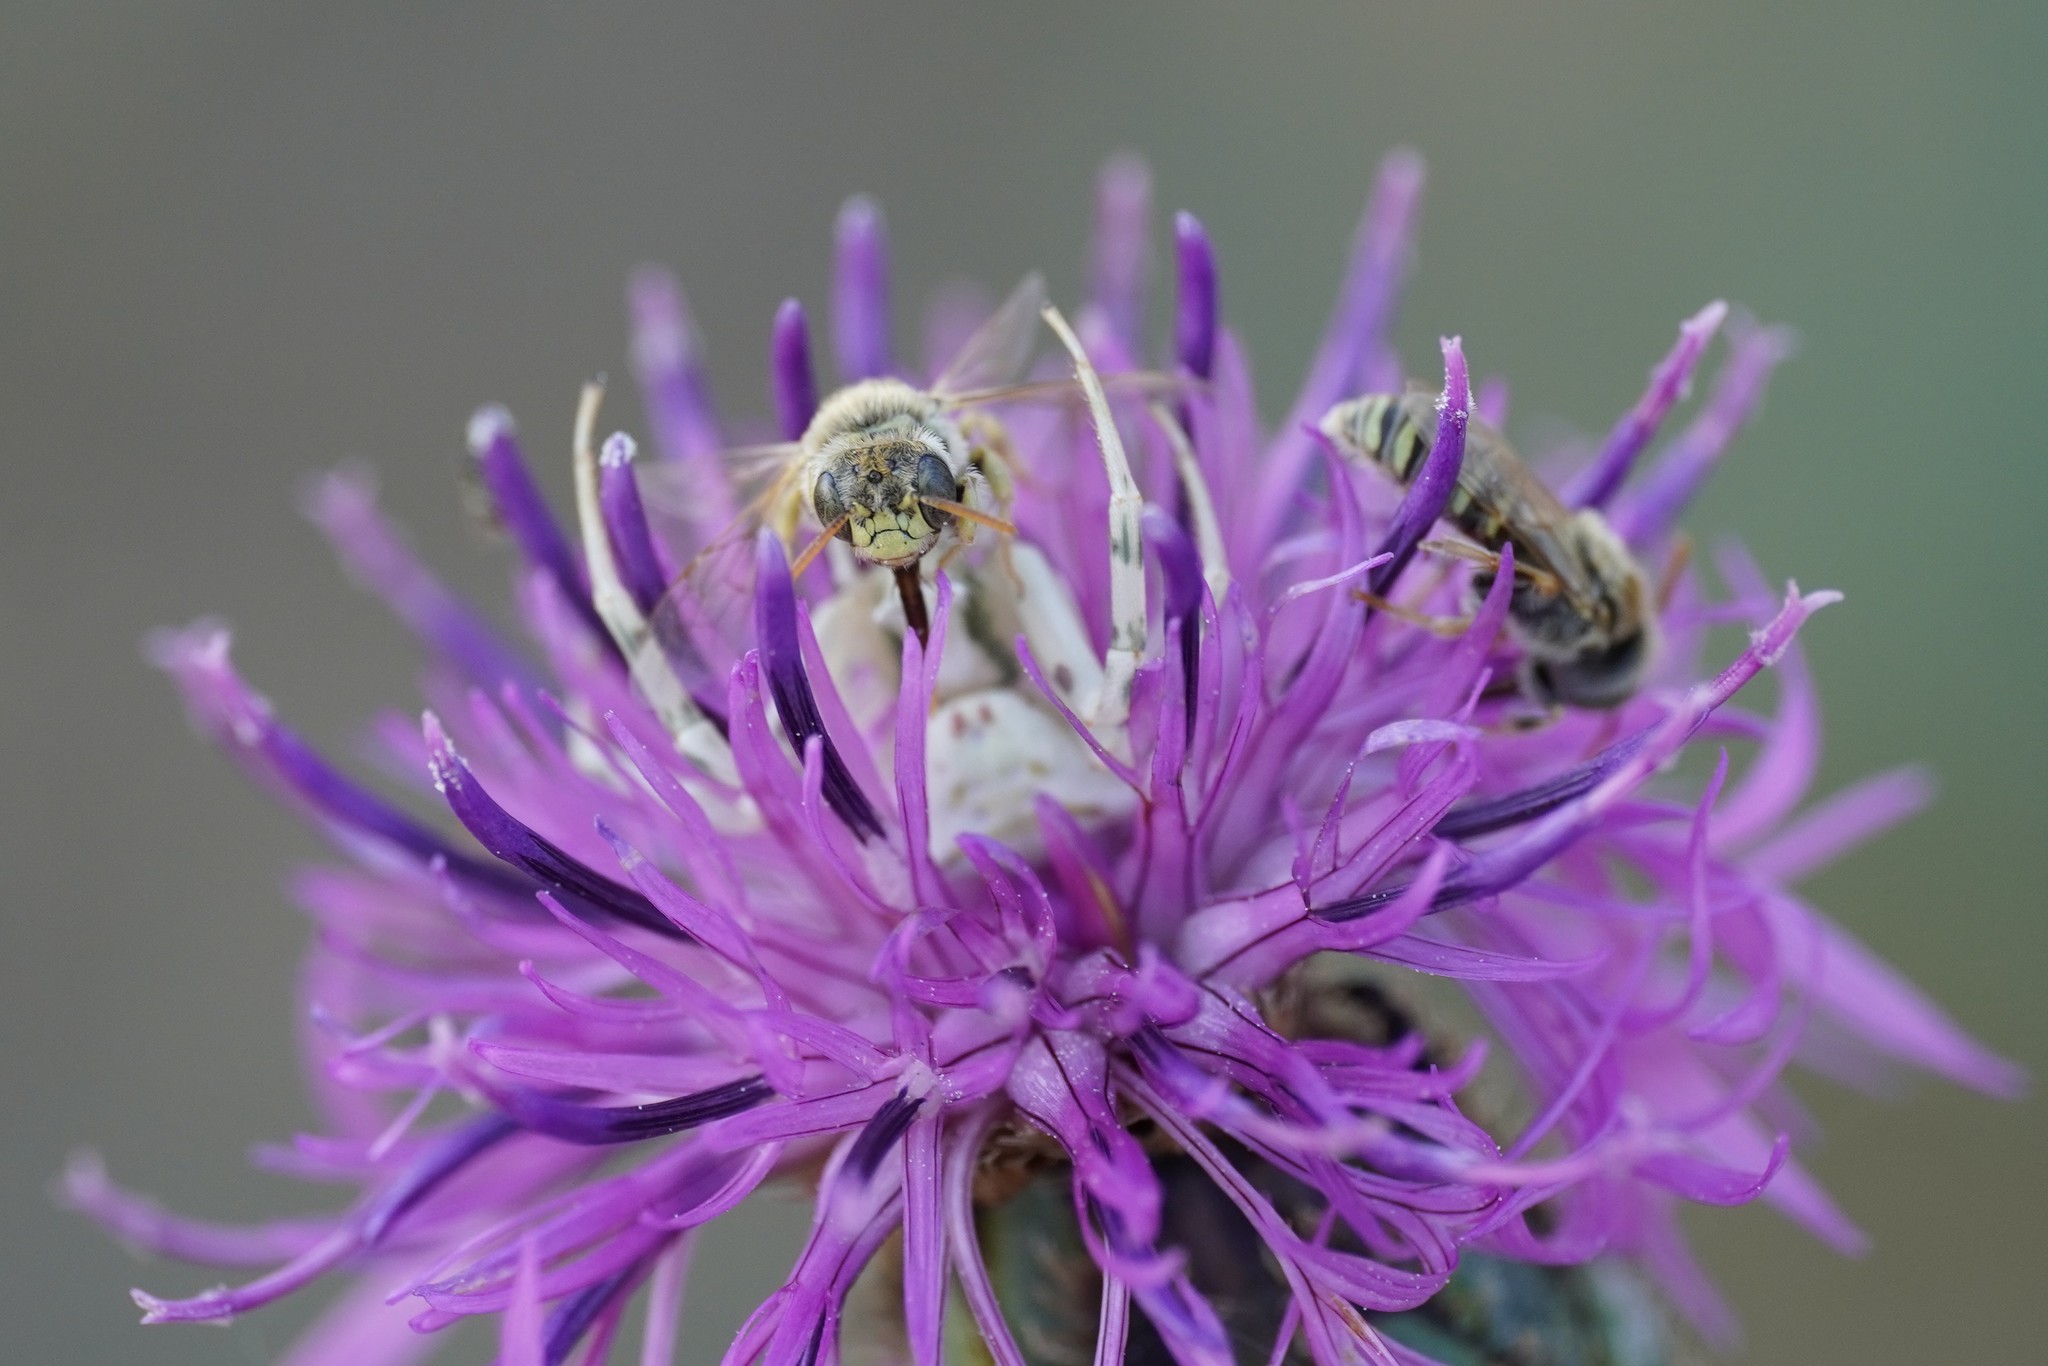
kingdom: Animalia
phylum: Arthropoda
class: Insecta
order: Hymenoptera
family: Andrenidae
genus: Camptopoeum
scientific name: Camptopoeum friesei
